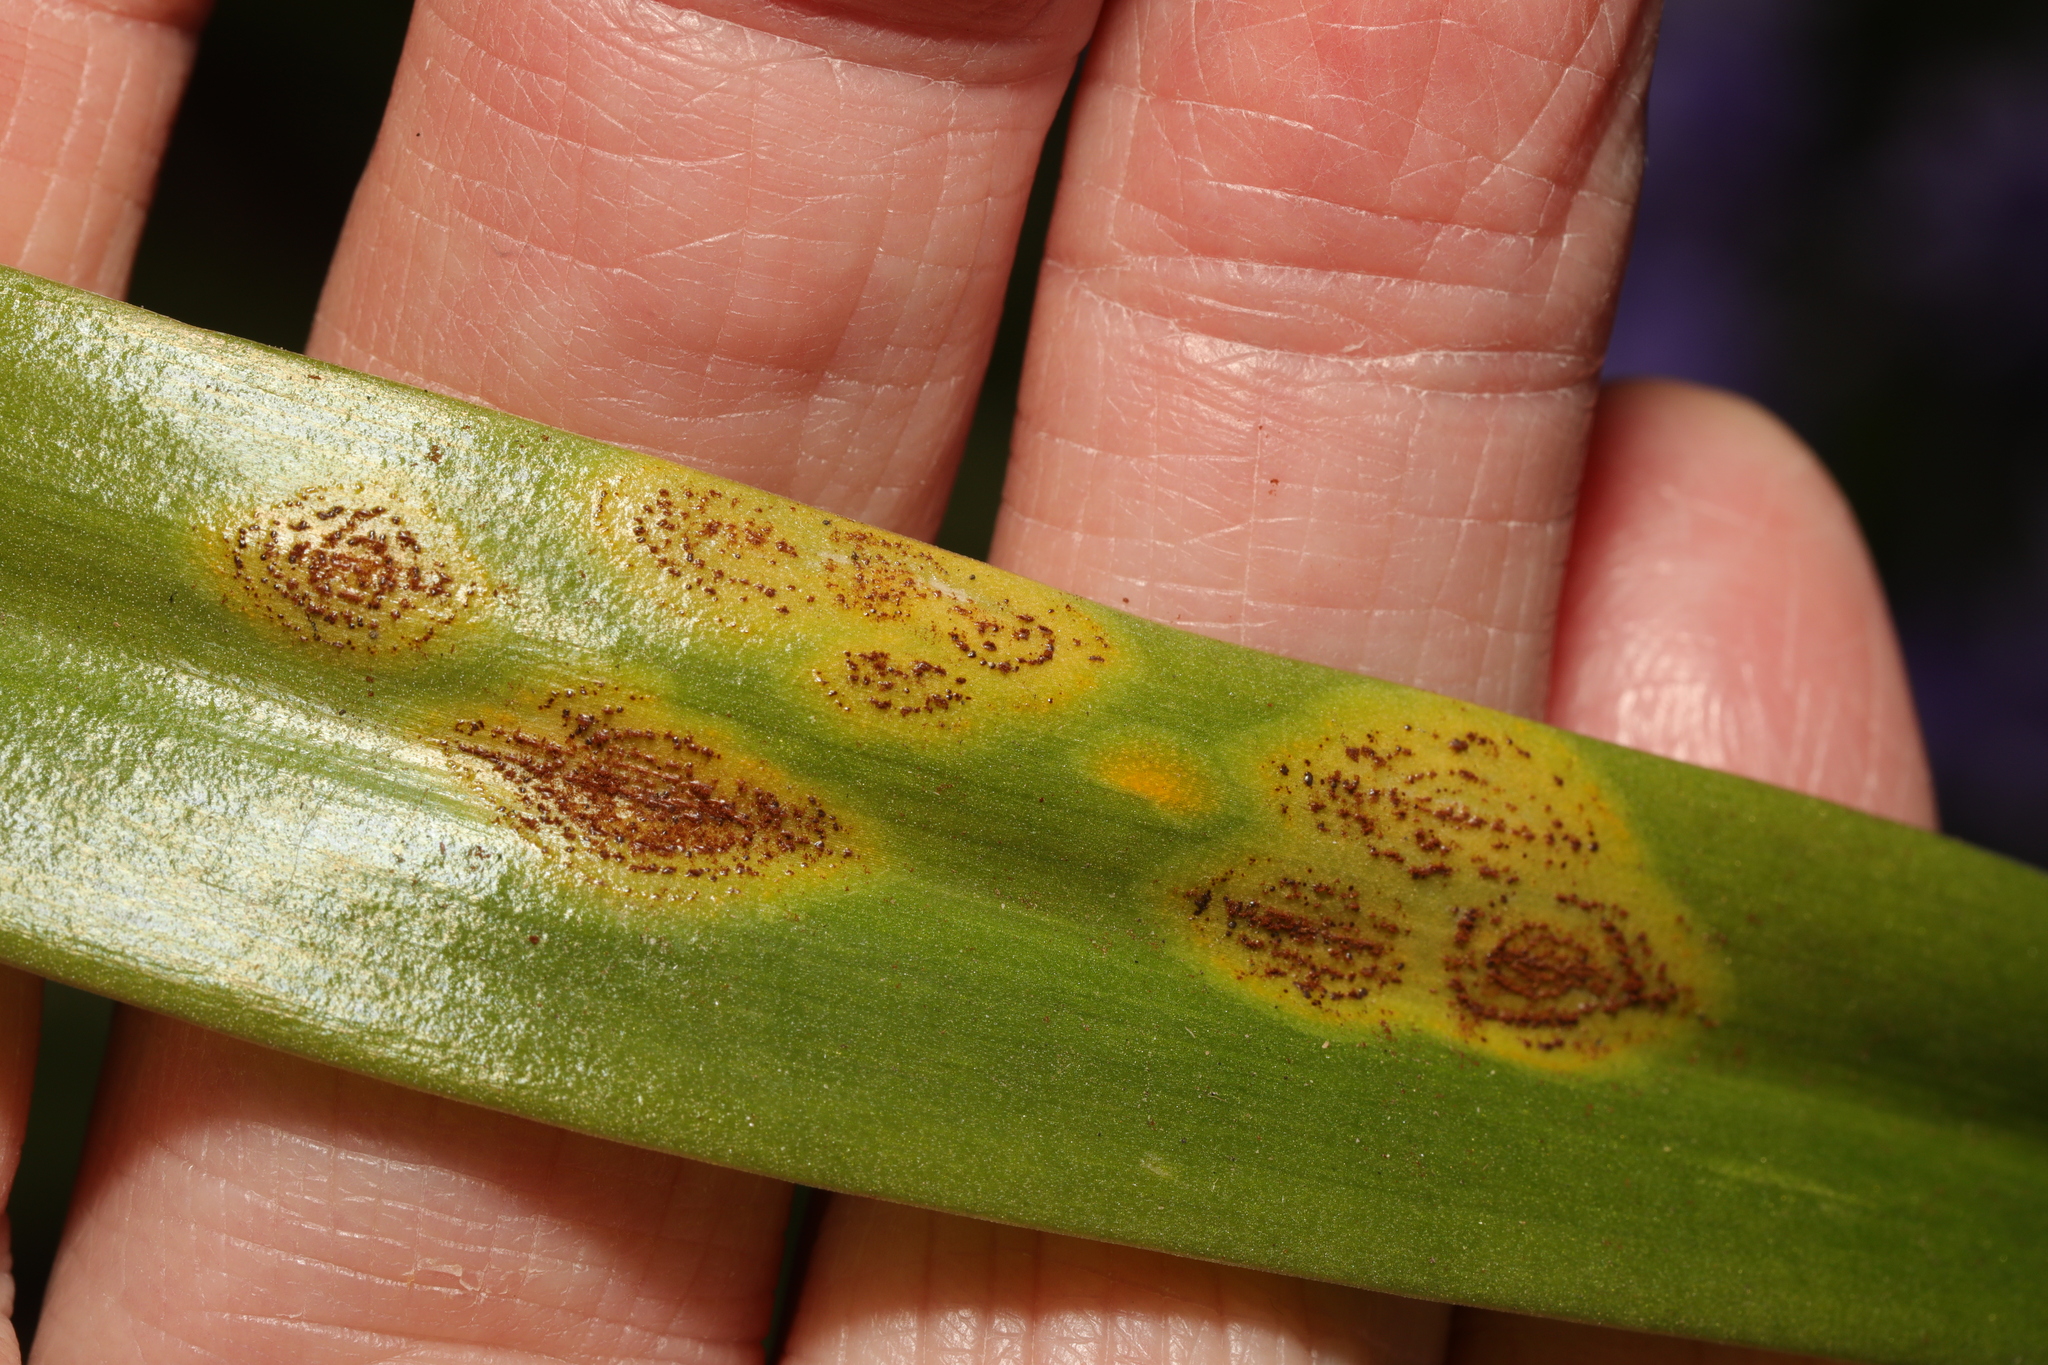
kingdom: Fungi
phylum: Basidiomycota
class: Pucciniomycetes
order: Pucciniales
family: Pucciniaceae
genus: Uromyces
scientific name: Uromyces hyacinthi
